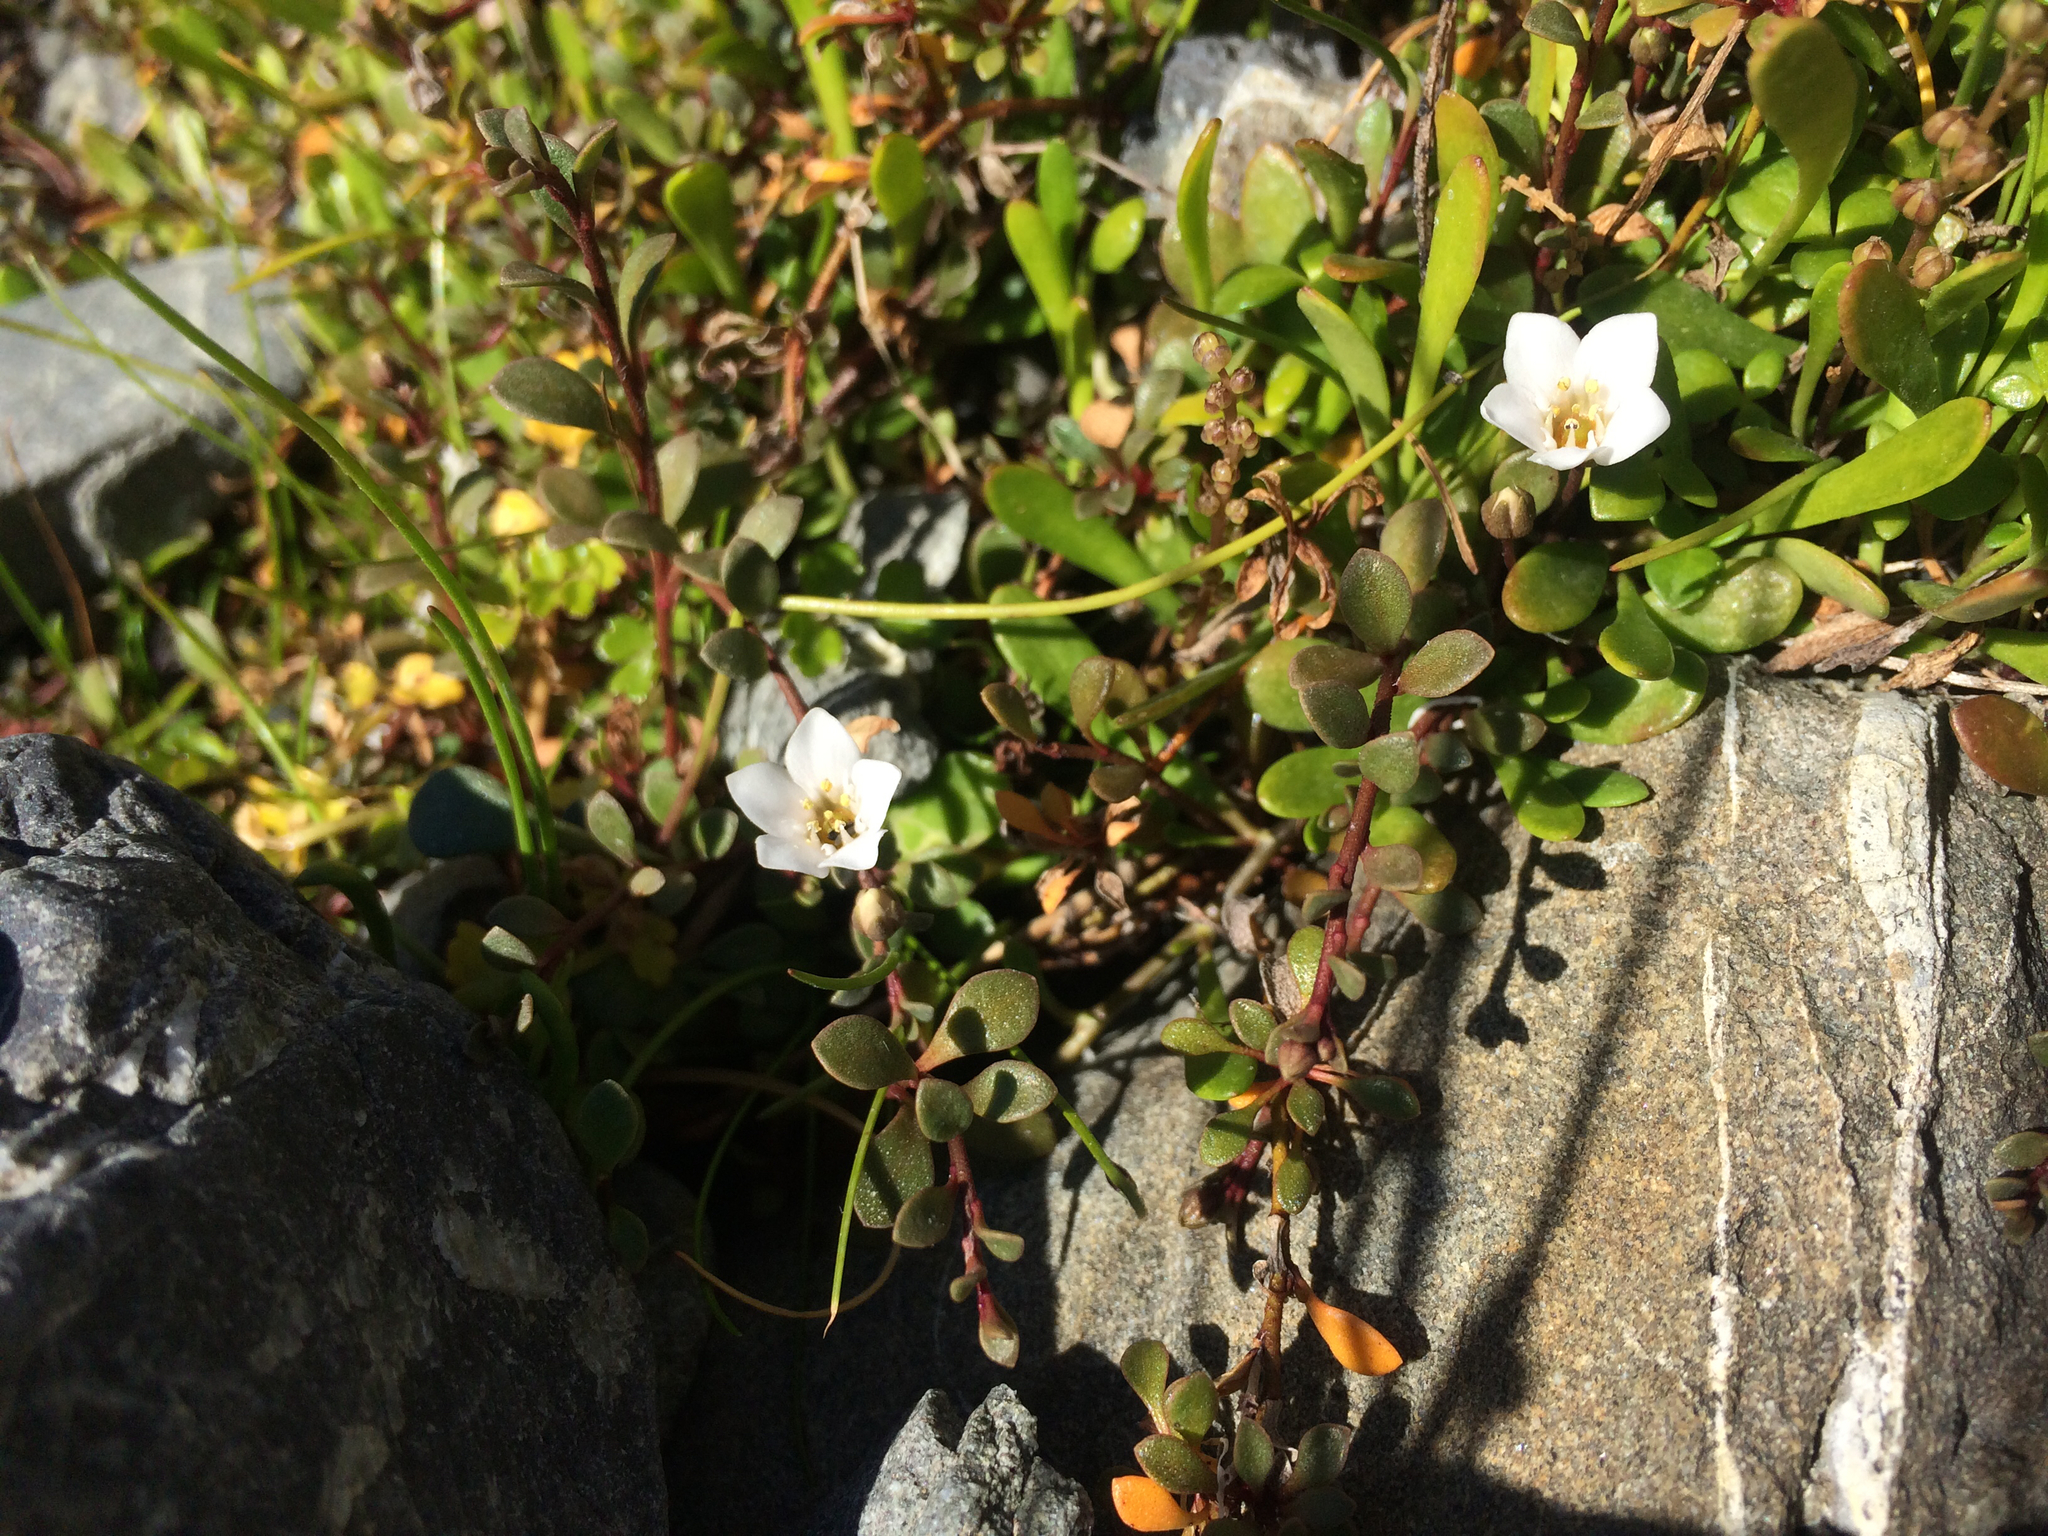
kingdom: Plantae
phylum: Tracheophyta
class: Magnoliopsida
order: Ericales
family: Primulaceae
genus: Samolus
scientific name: Samolus repens
